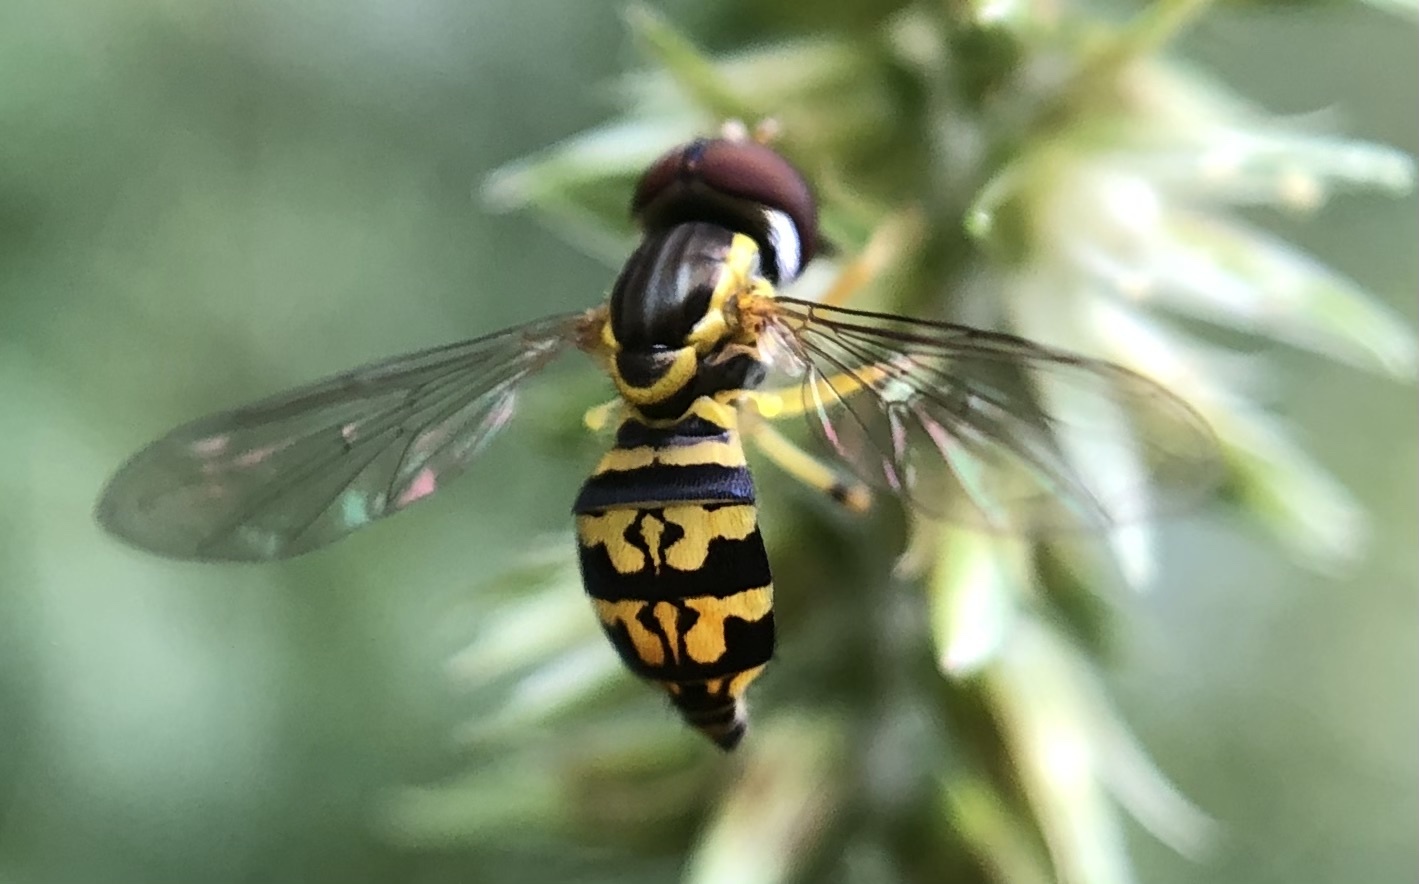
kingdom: Animalia
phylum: Arthropoda
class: Insecta
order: Diptera
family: Syrphidae
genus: Toxomerus
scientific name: Toxomerus geminatus
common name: Eastern calligrapher
